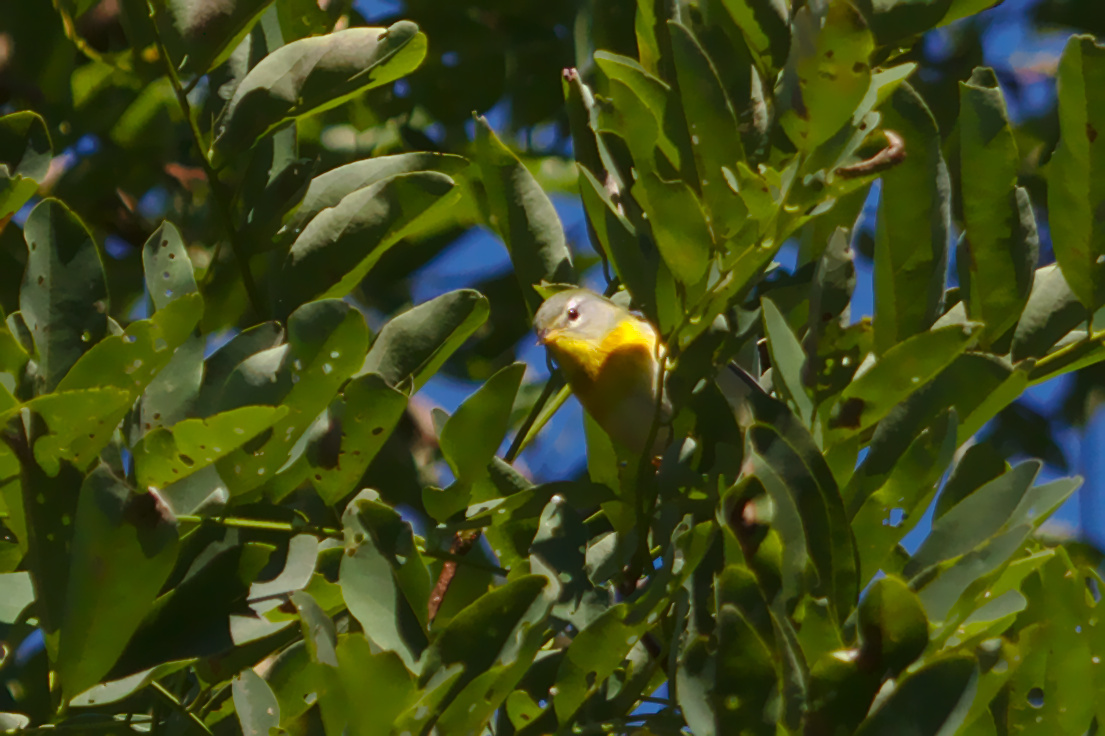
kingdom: Animalia
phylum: Chordata
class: Aves
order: Passeriformes
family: Parulidae
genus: Setophaga
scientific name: Setophaga americana
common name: Northern parula
